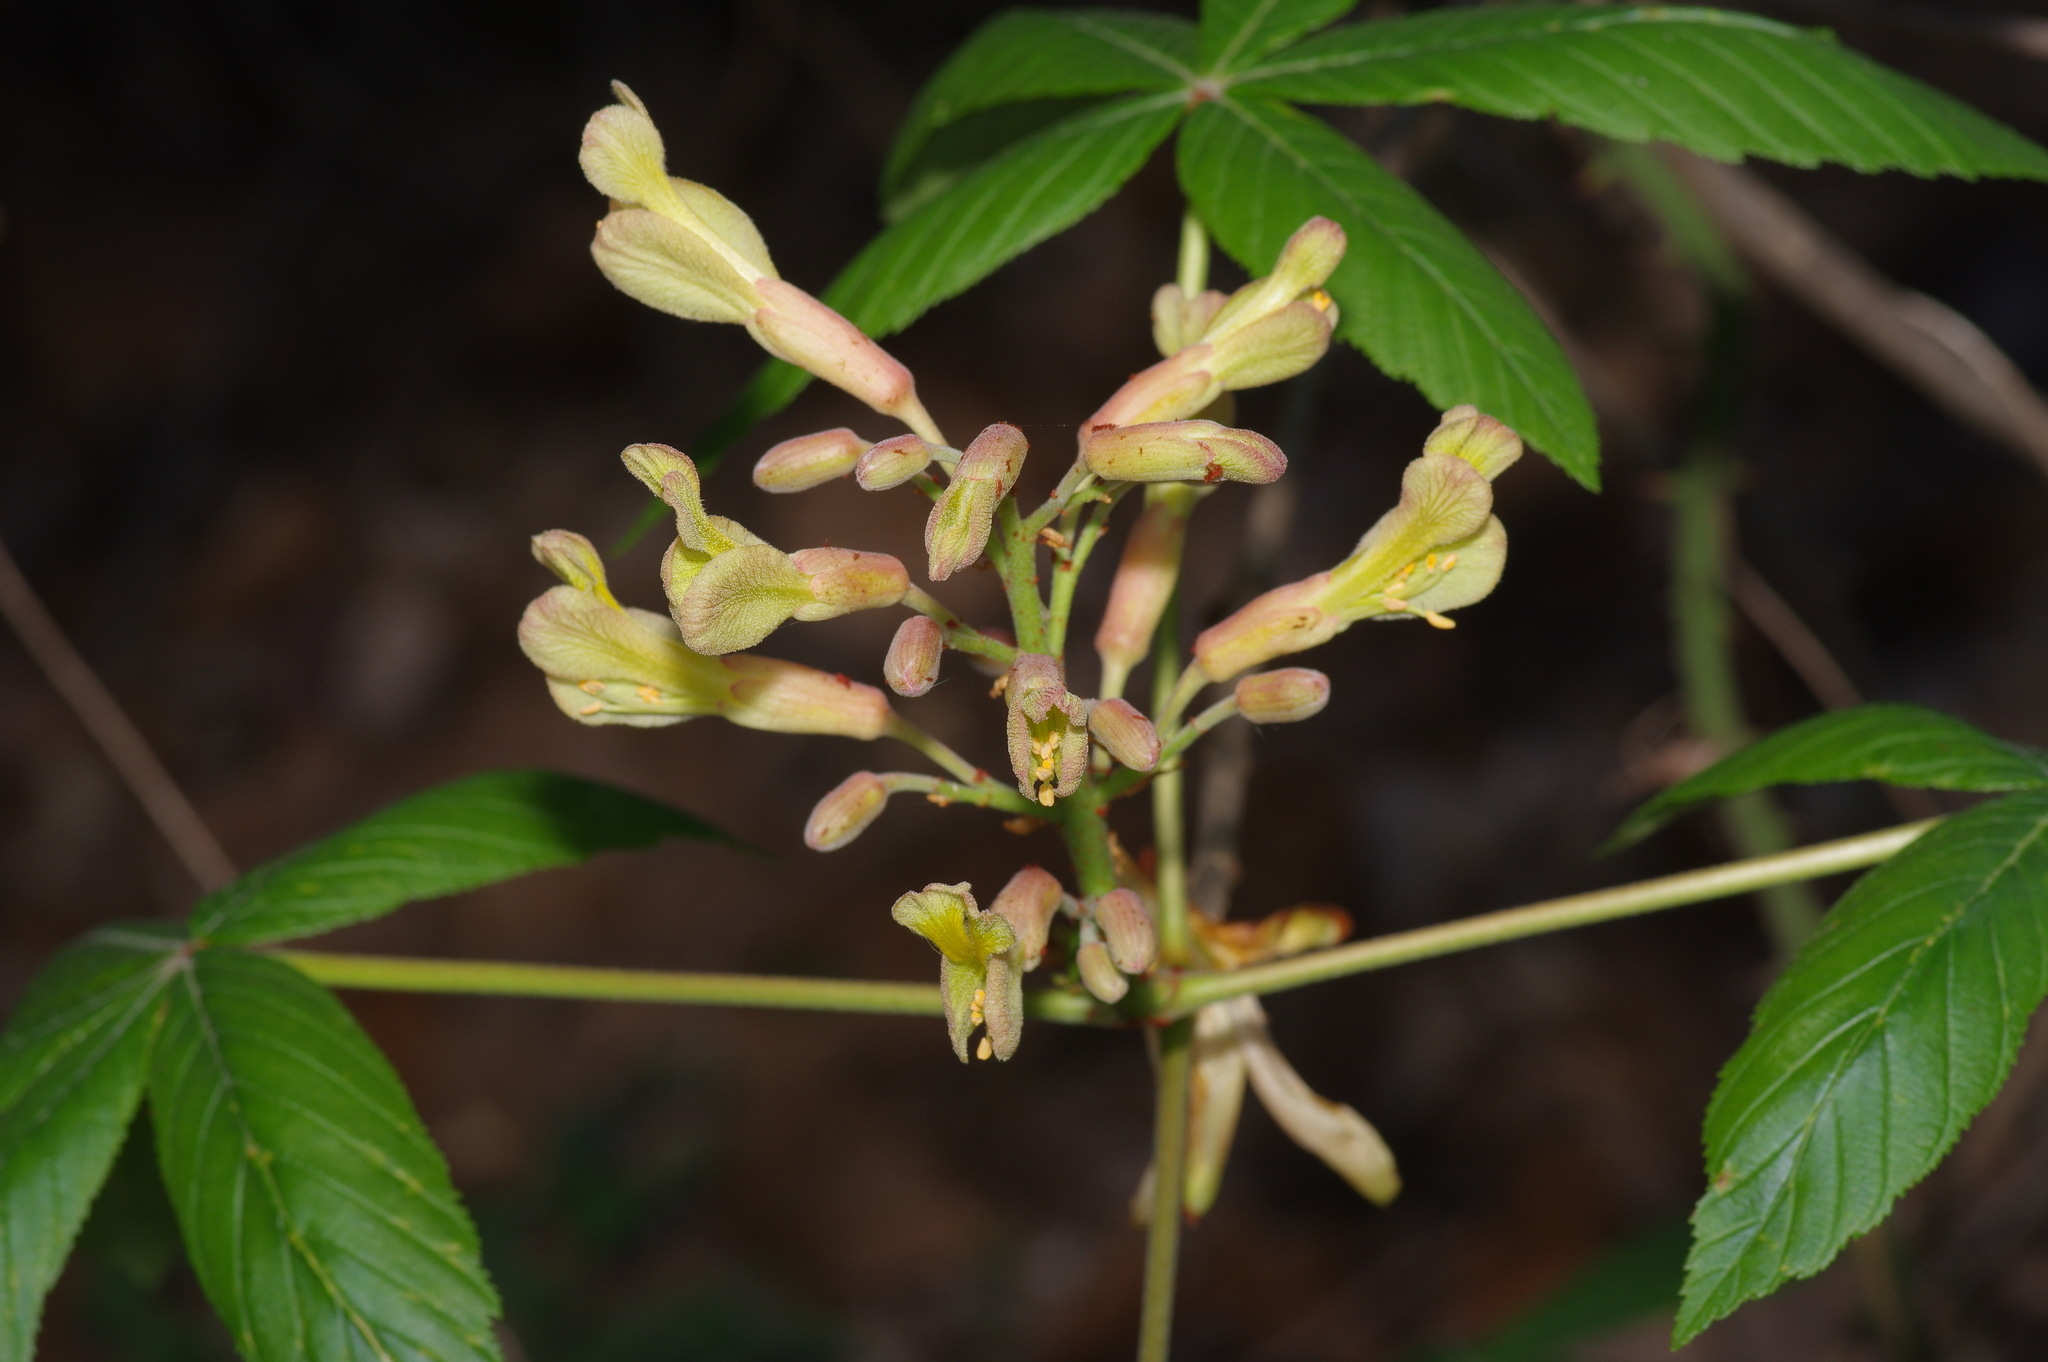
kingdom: Plantae
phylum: Tracheophyta
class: Magnoliopsida
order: Sapindales
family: Sapindaceae
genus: Aesculus
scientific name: Aesculus pavia
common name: Red buckeye
